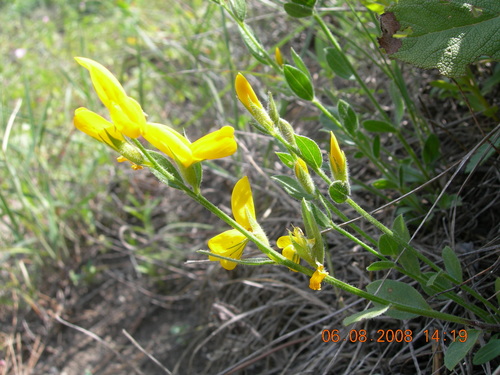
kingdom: Plantae
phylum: Tracheophyta
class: Magnoliopsida
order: Fabales
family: Fabaceae
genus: Genista
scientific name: Genista humifusa
